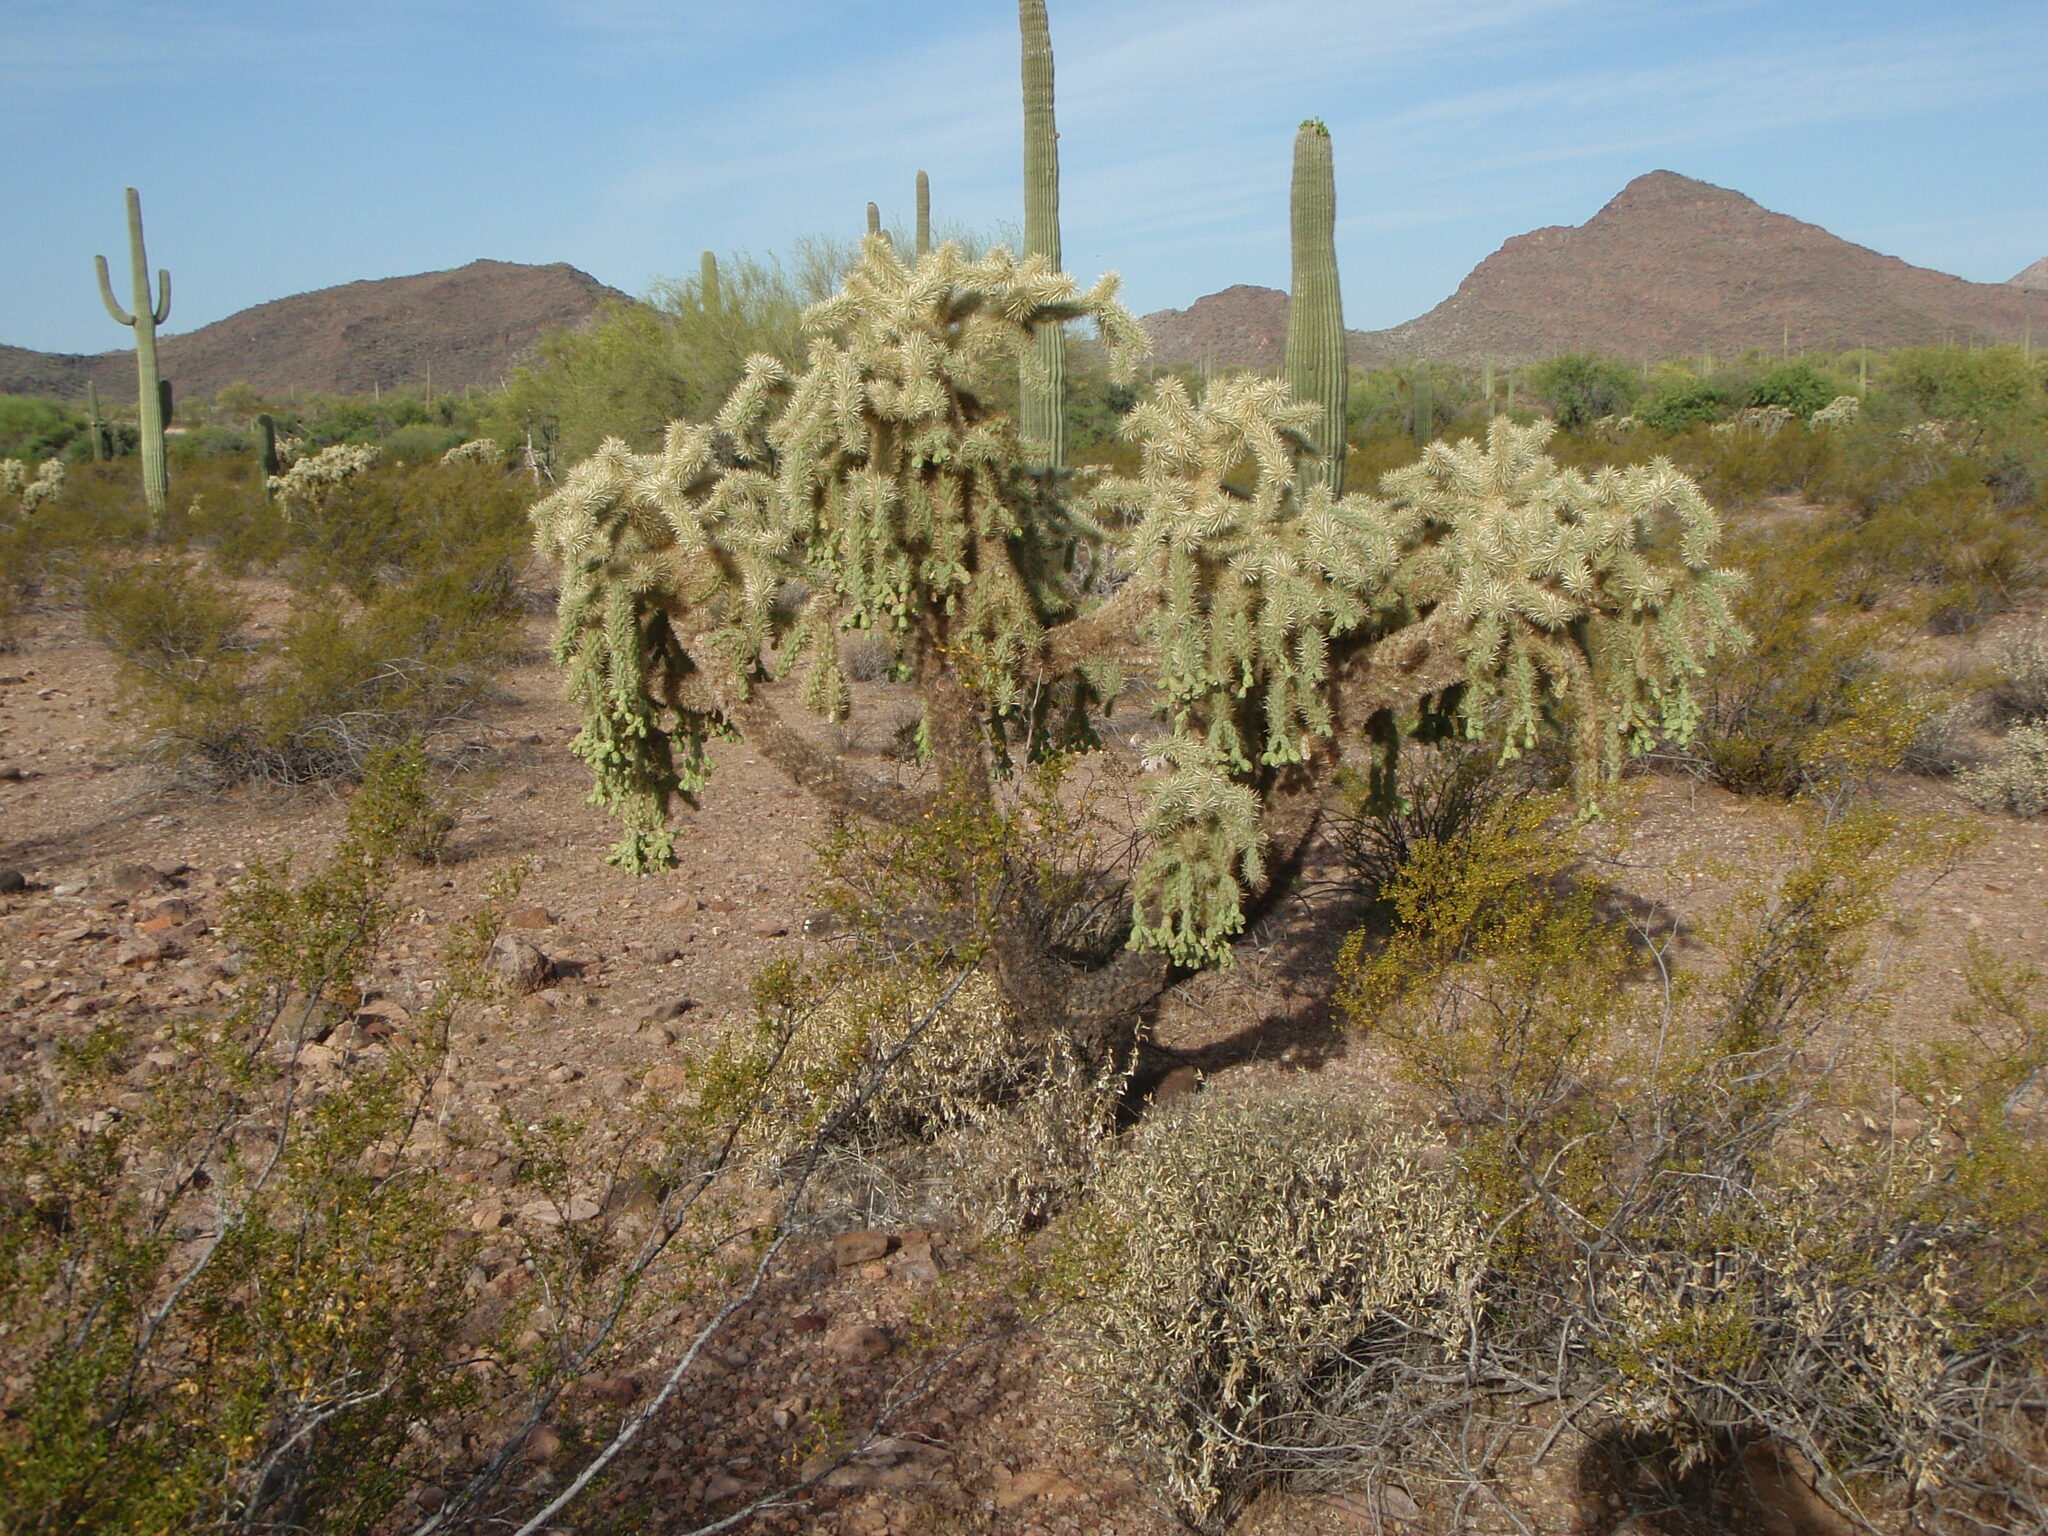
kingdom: Plantae
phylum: Tracheophyta
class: Magnoliopsida
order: Caryophyllales
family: Cactaceae
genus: Cylindropuntia
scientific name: Cylindropuntia fulgida
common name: Jumping cholla
